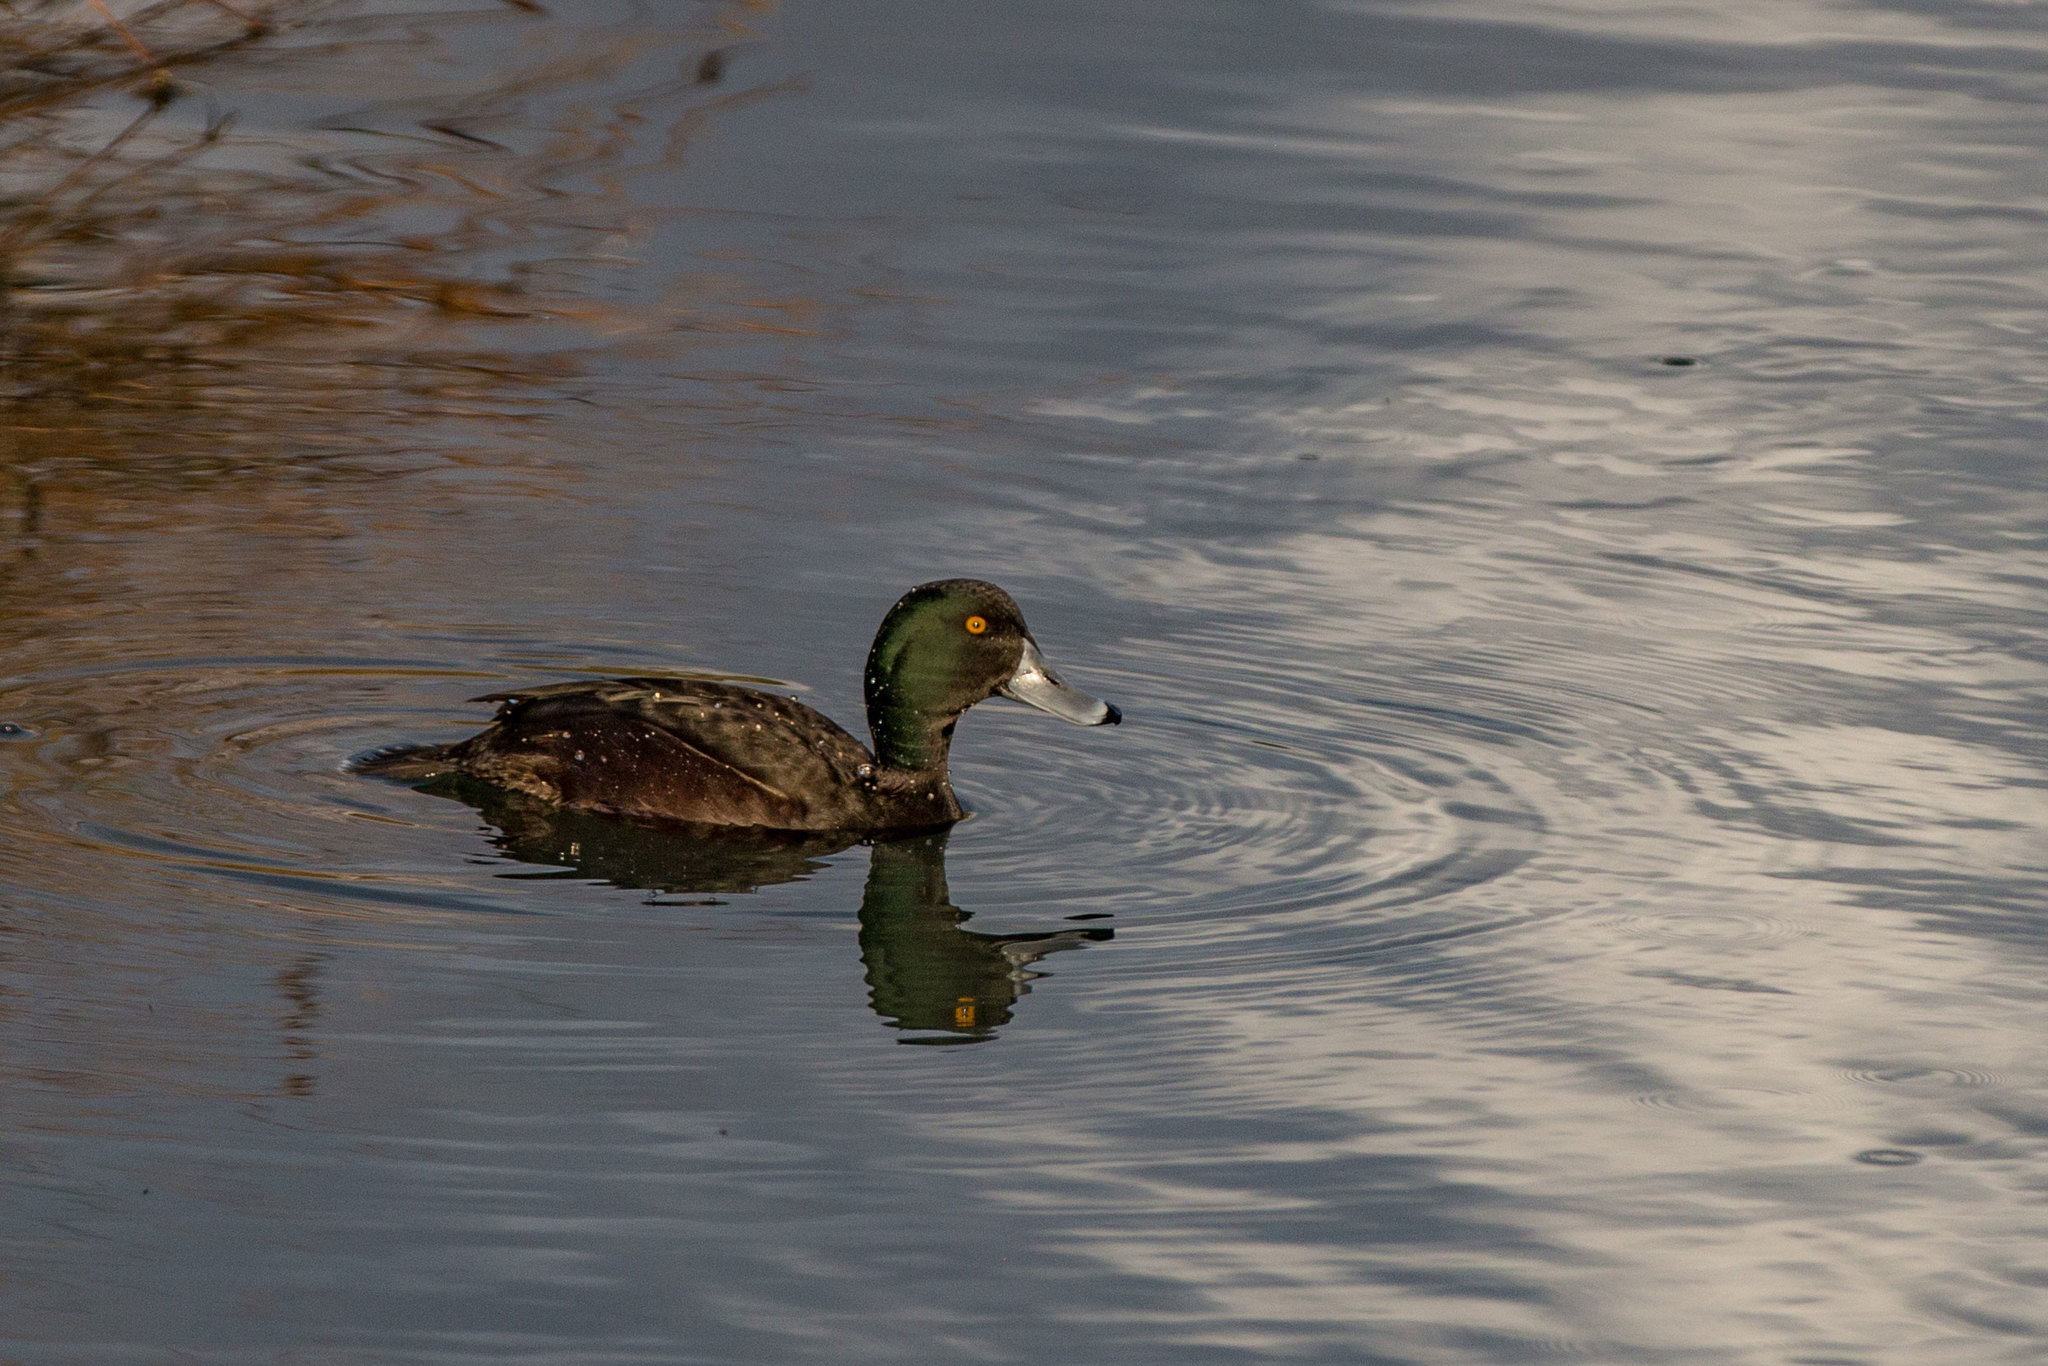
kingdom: Animalia
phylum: Chordata
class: Aves
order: Anseriformes
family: Anatidae
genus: Aythya
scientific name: Aythya novaeseelandiae
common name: New zealand scaup
